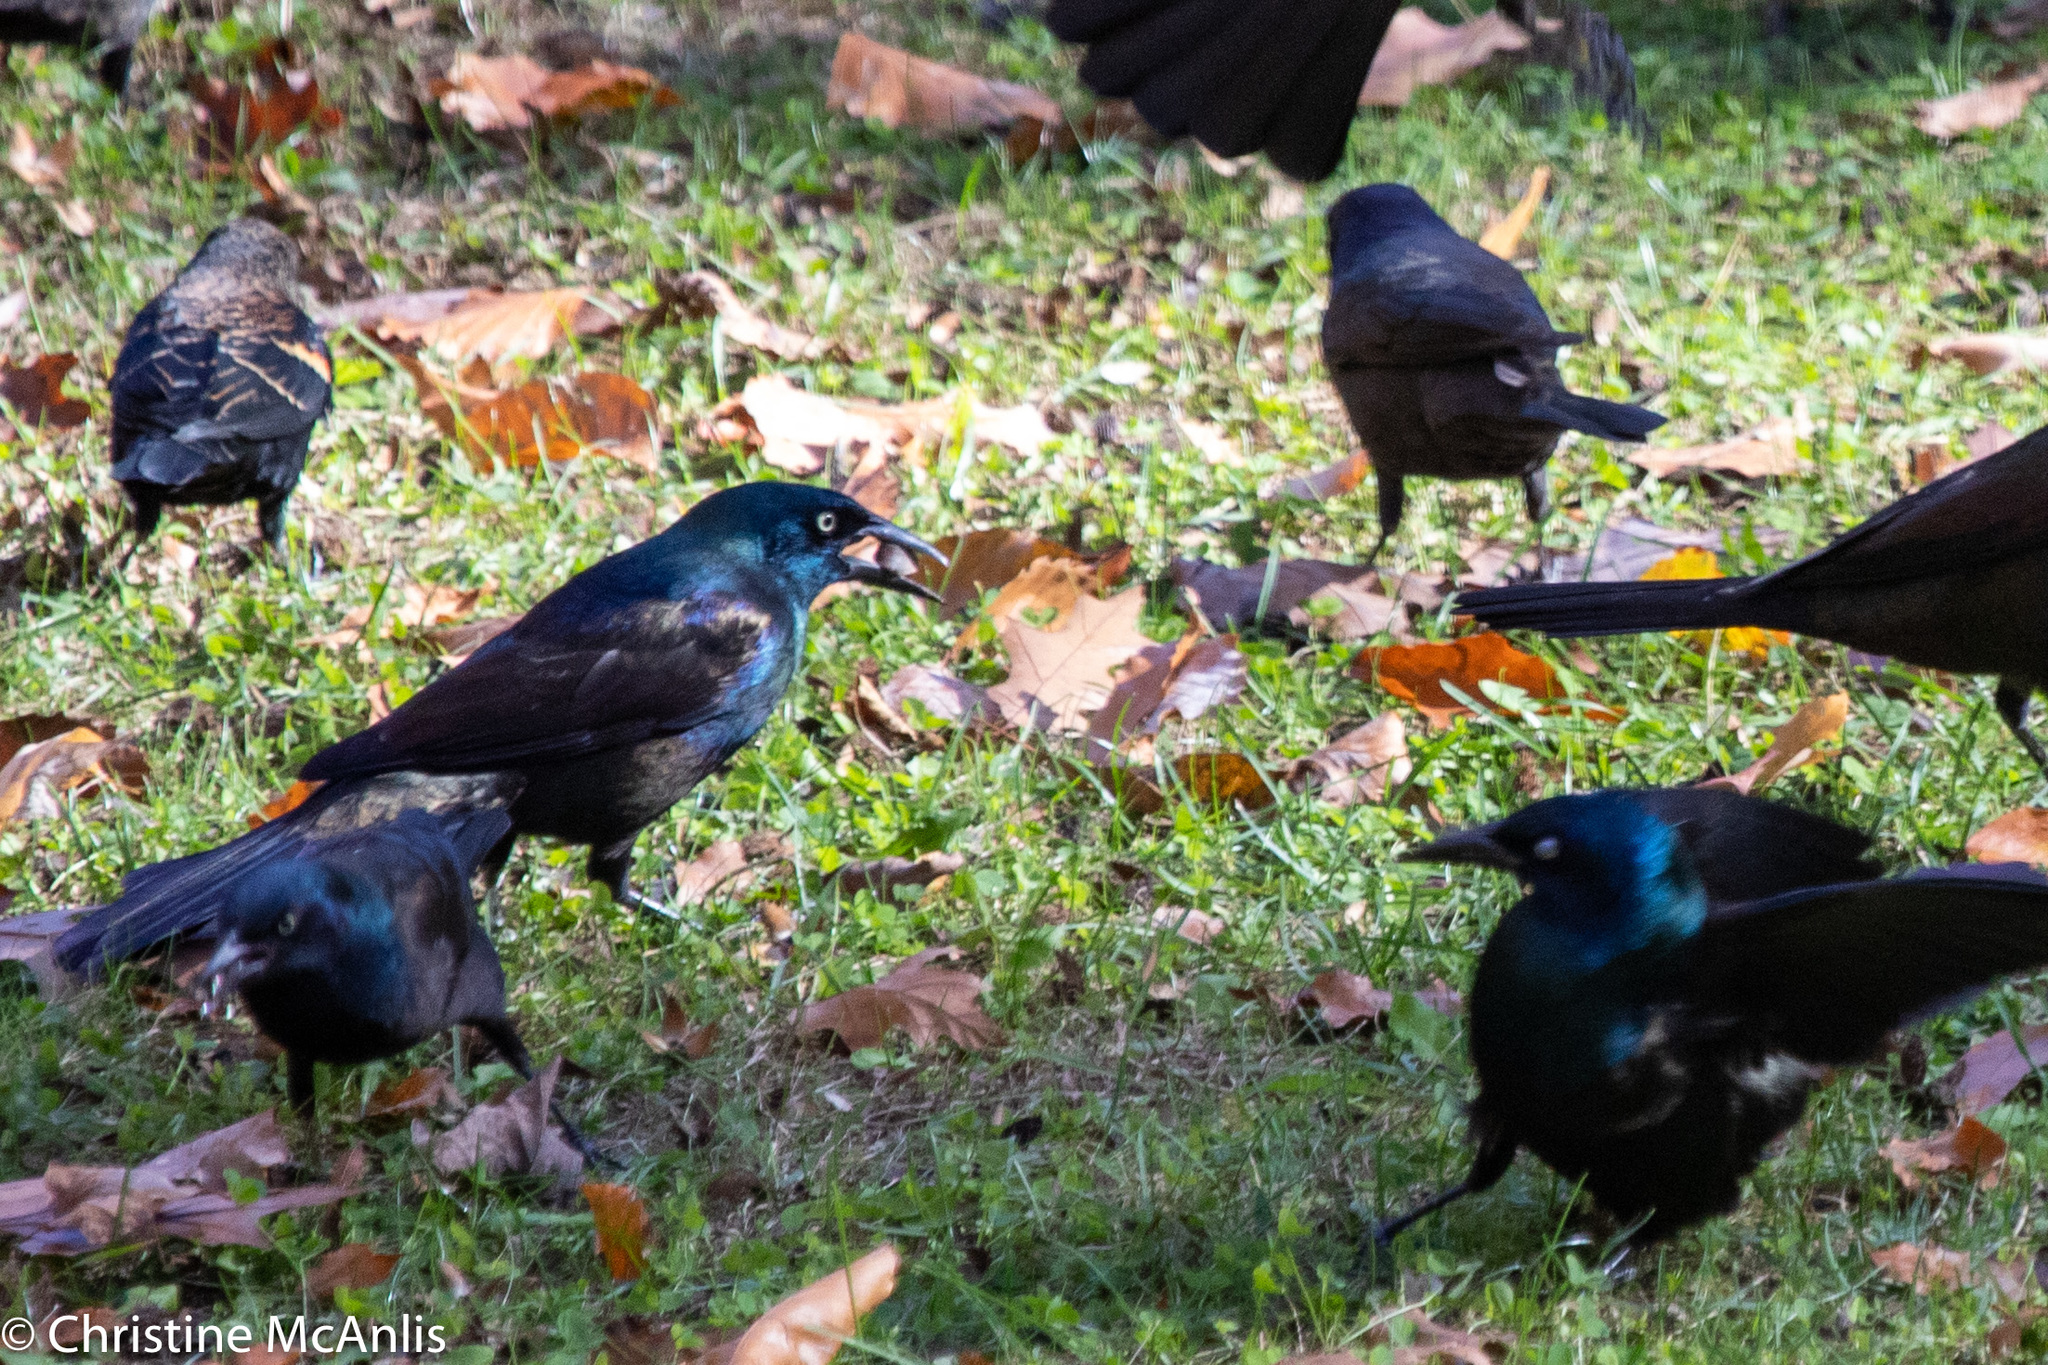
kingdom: Animalia
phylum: Chordata
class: Aves
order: Passeriformes
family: Icteridae
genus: Quiscalus
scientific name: Quiscalus quiscula
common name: Common grackle
